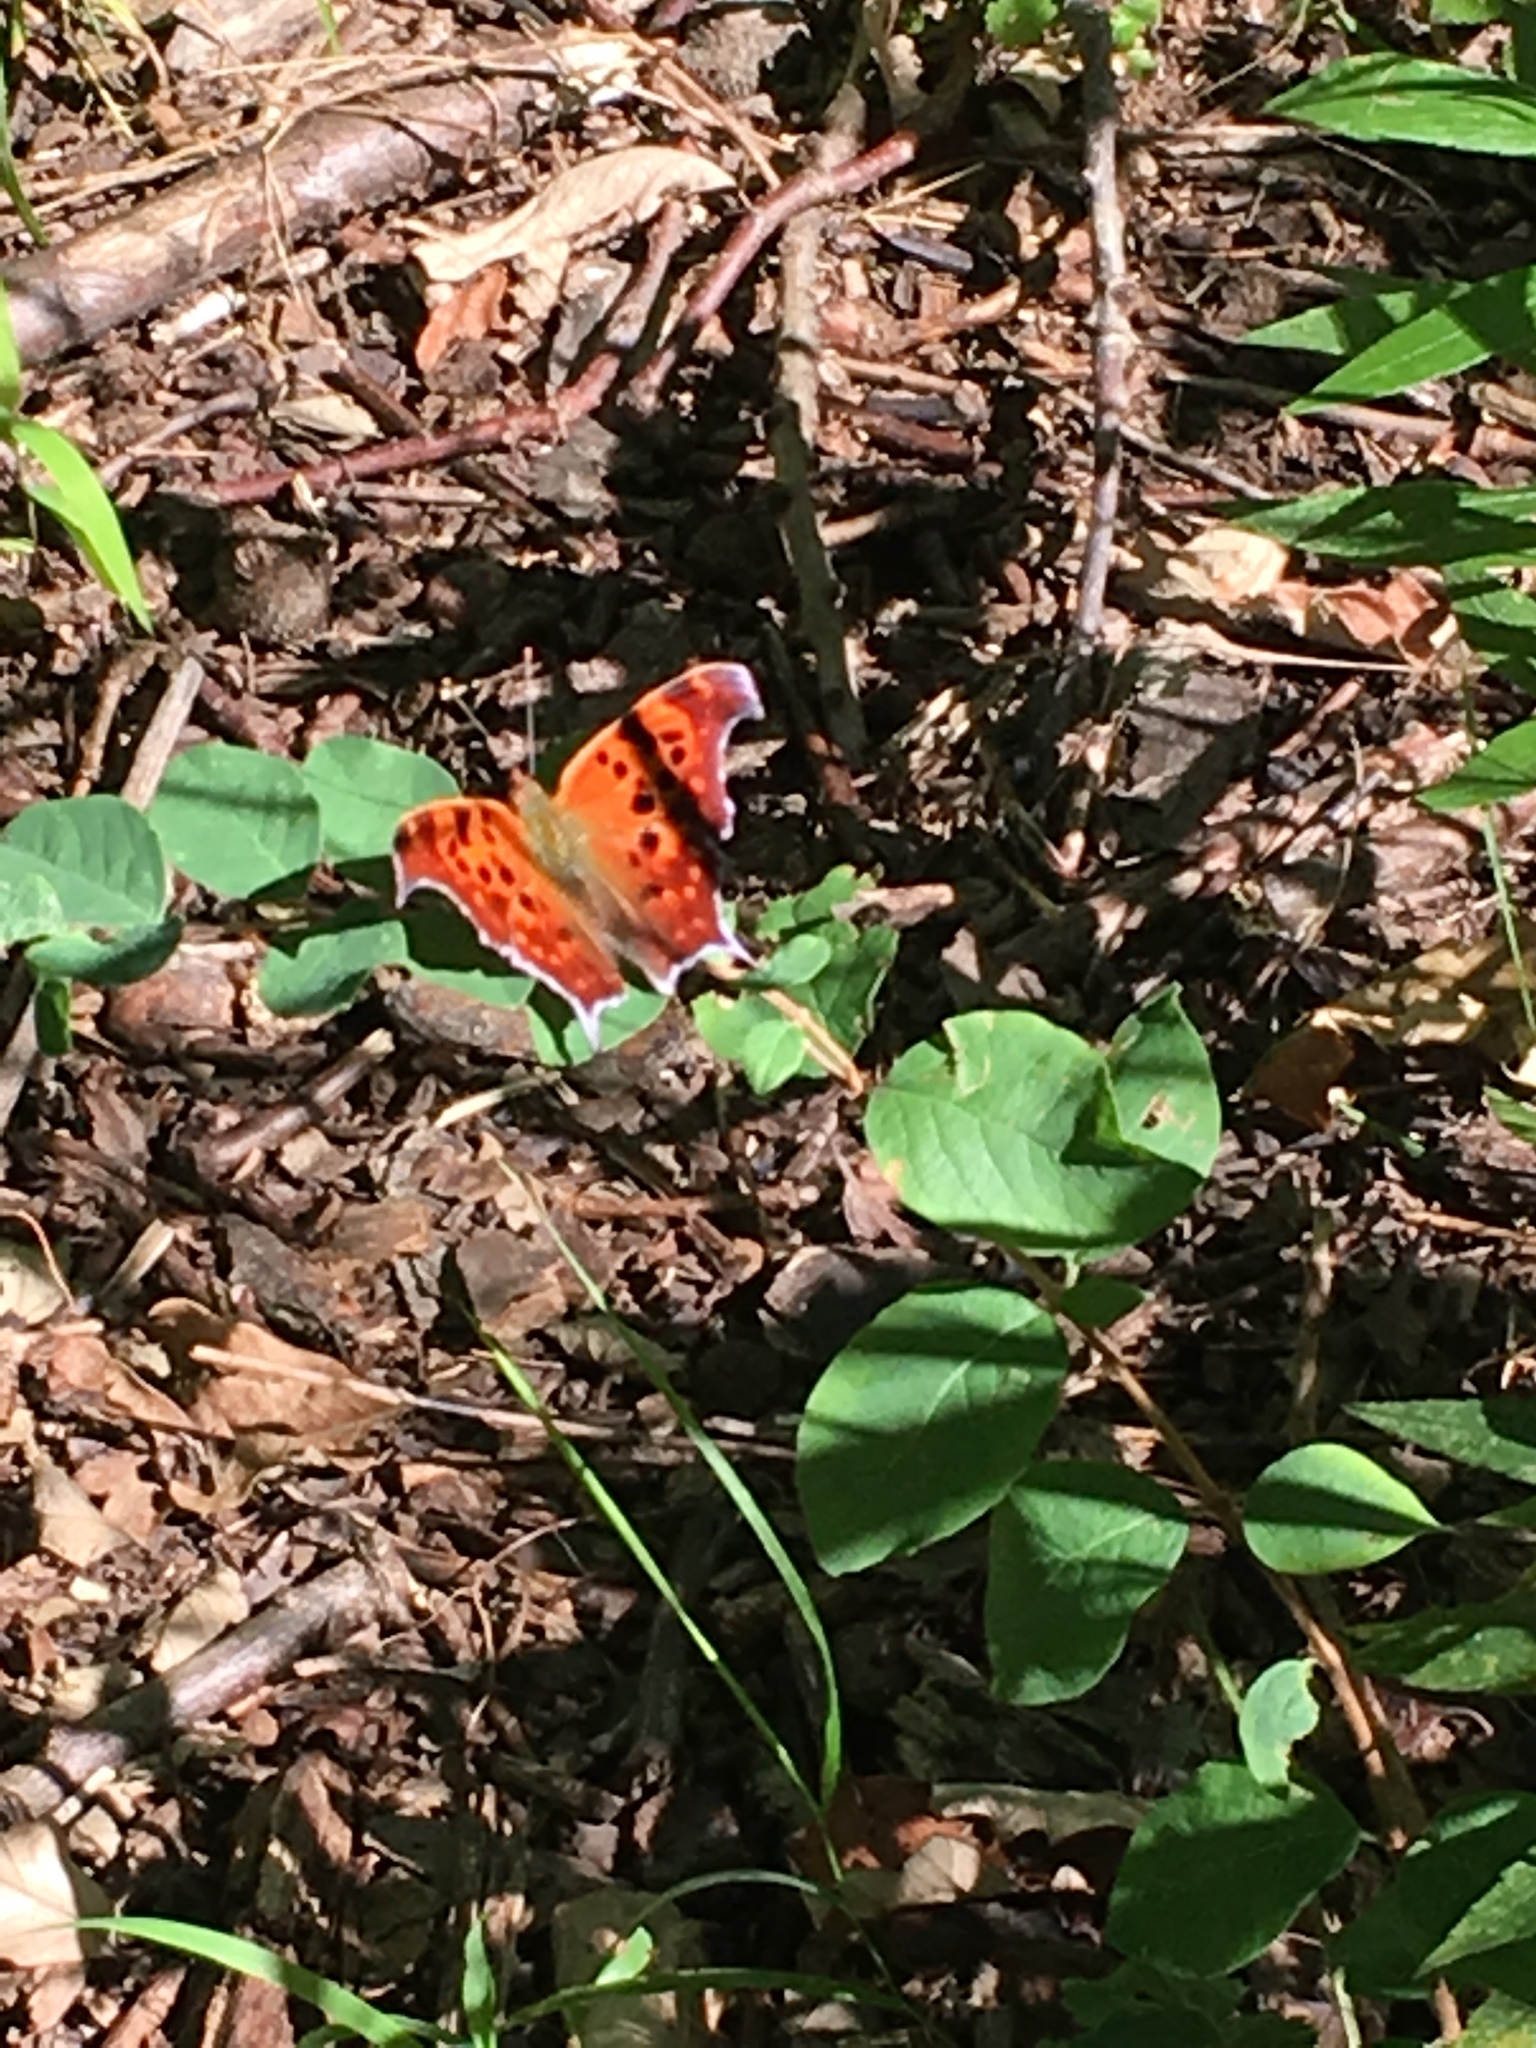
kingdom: Animalia
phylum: Arthropoda
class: Insecta
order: Lepidoptera
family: Nymphalidae
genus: Polygonia
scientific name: Polygonia interrogationis
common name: Question mark
